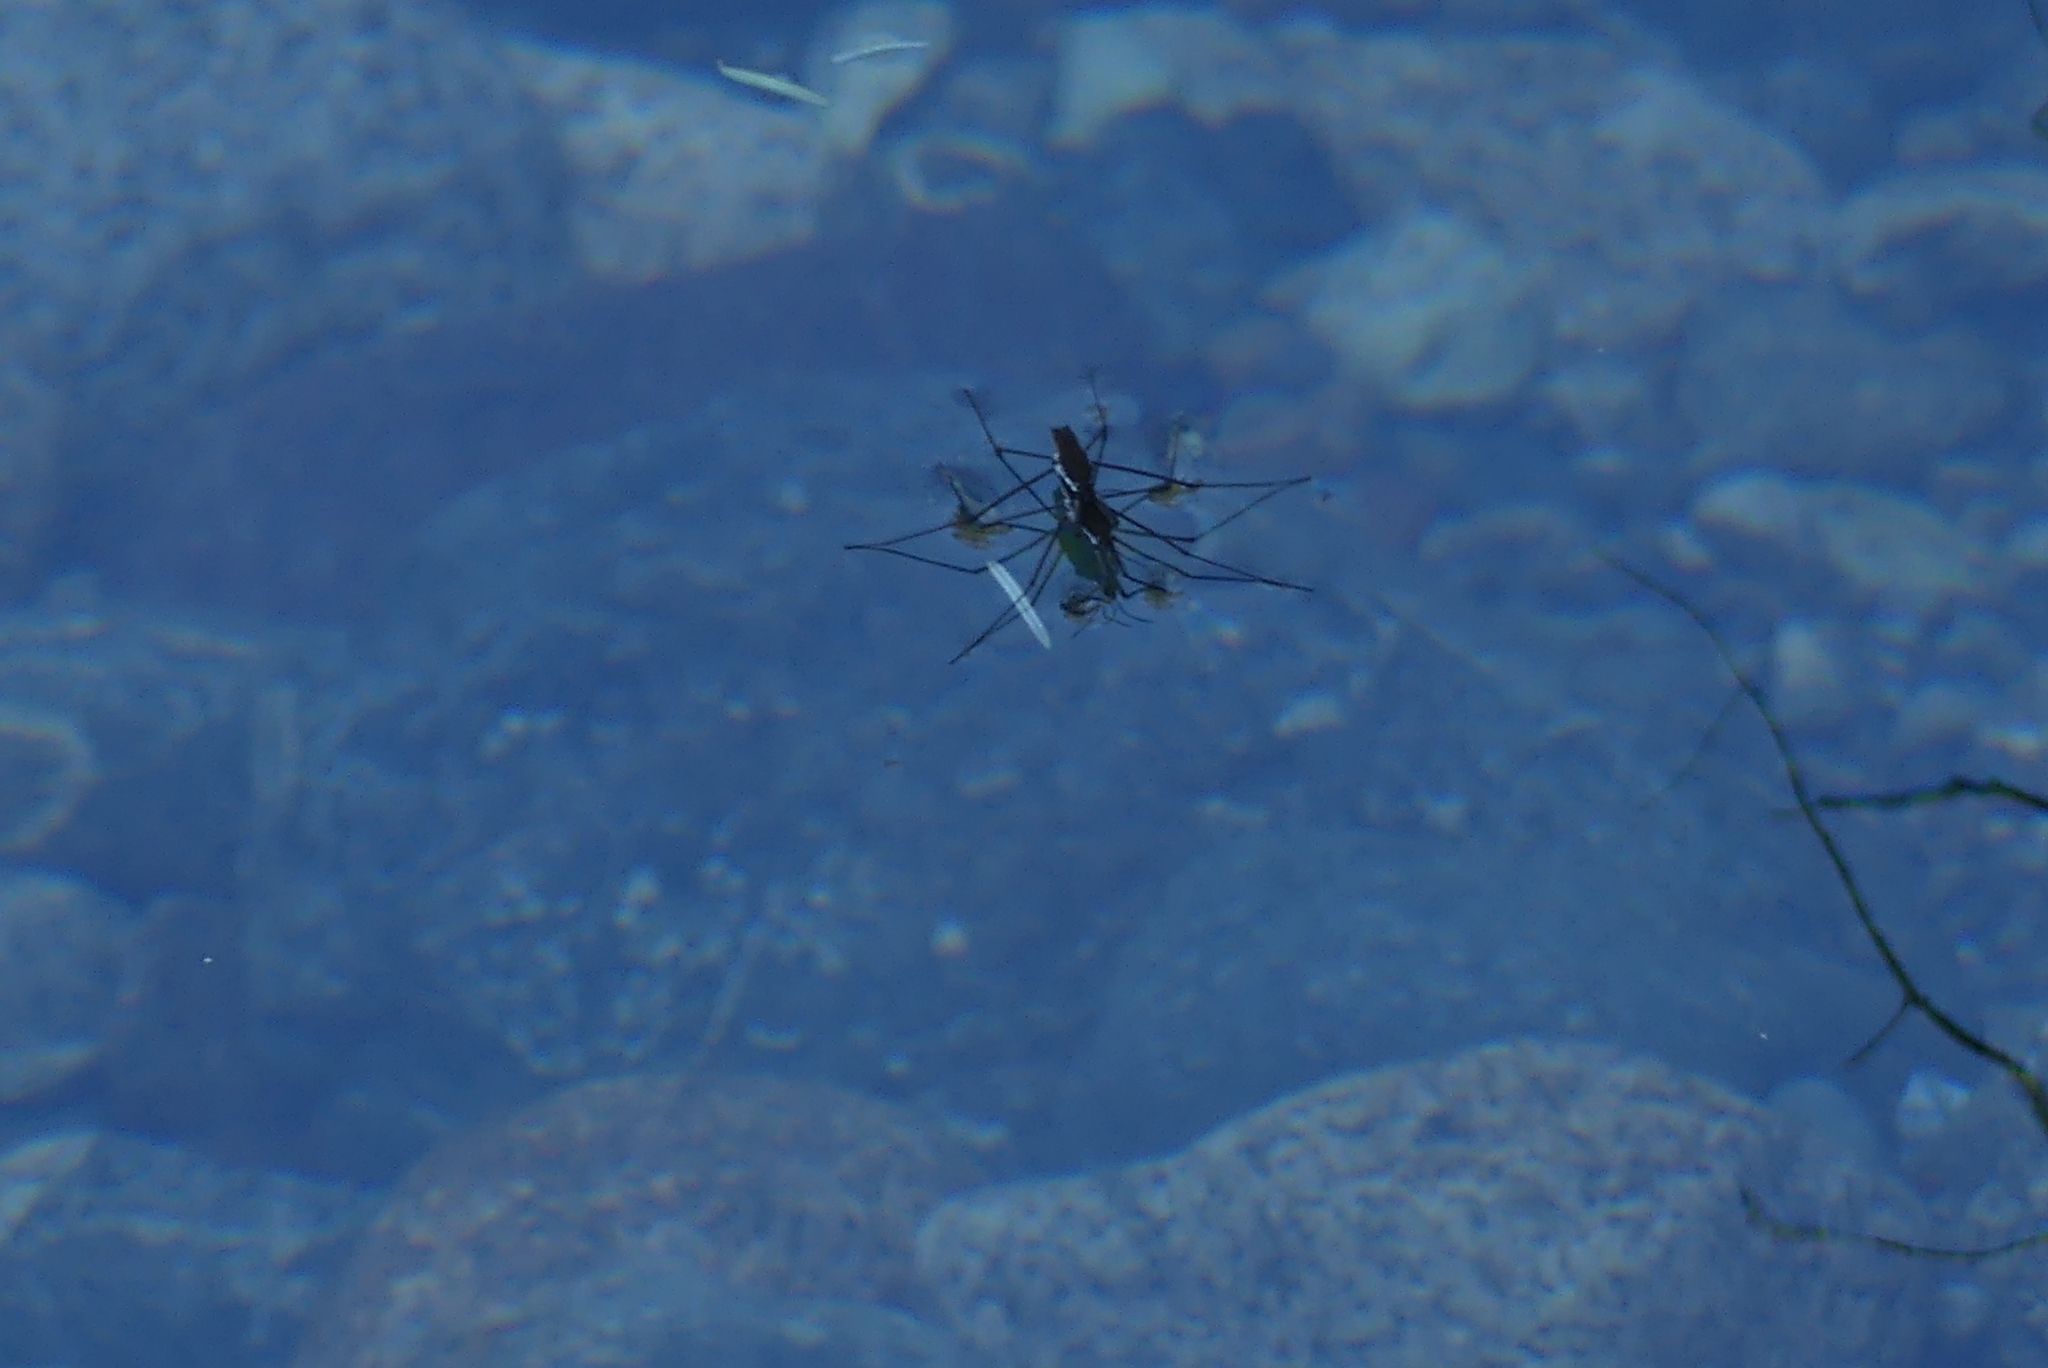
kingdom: Animalia
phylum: Arthropoda
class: Insecta
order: Hemiptera
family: Gerridae
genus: Aquarius
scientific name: Aquarius remigis
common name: Common water strider
